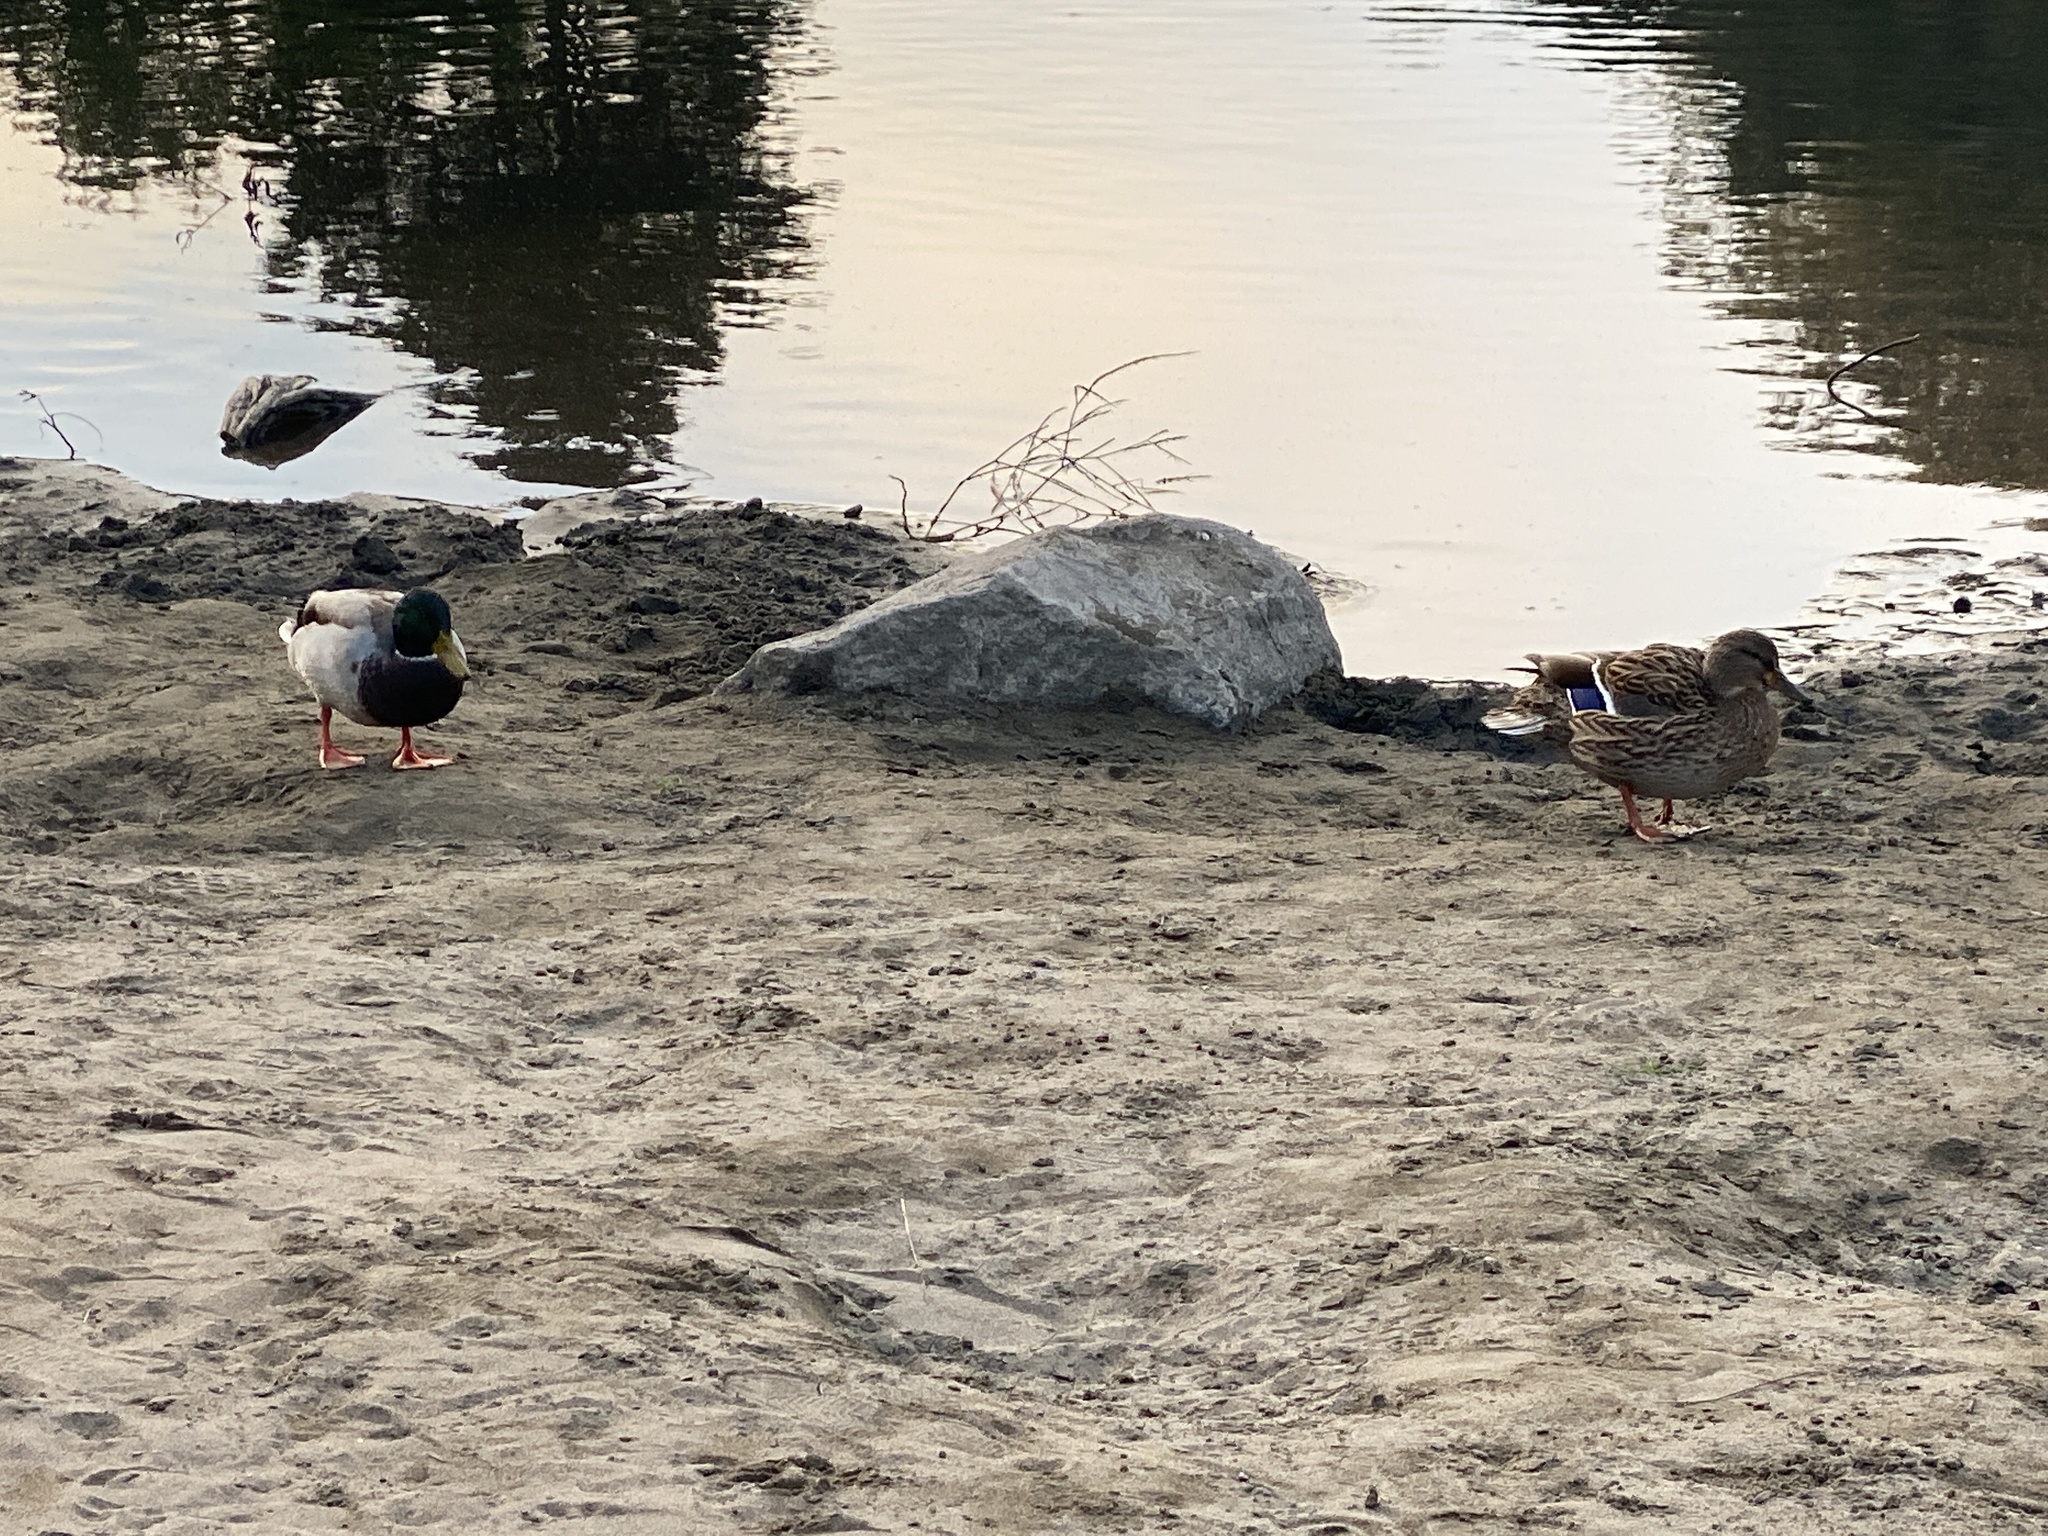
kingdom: Animalia
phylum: Chordata
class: Aves
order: Anseriformes
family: Anatidae
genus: Anas
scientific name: Anas platyrhynchos
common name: Mallard
